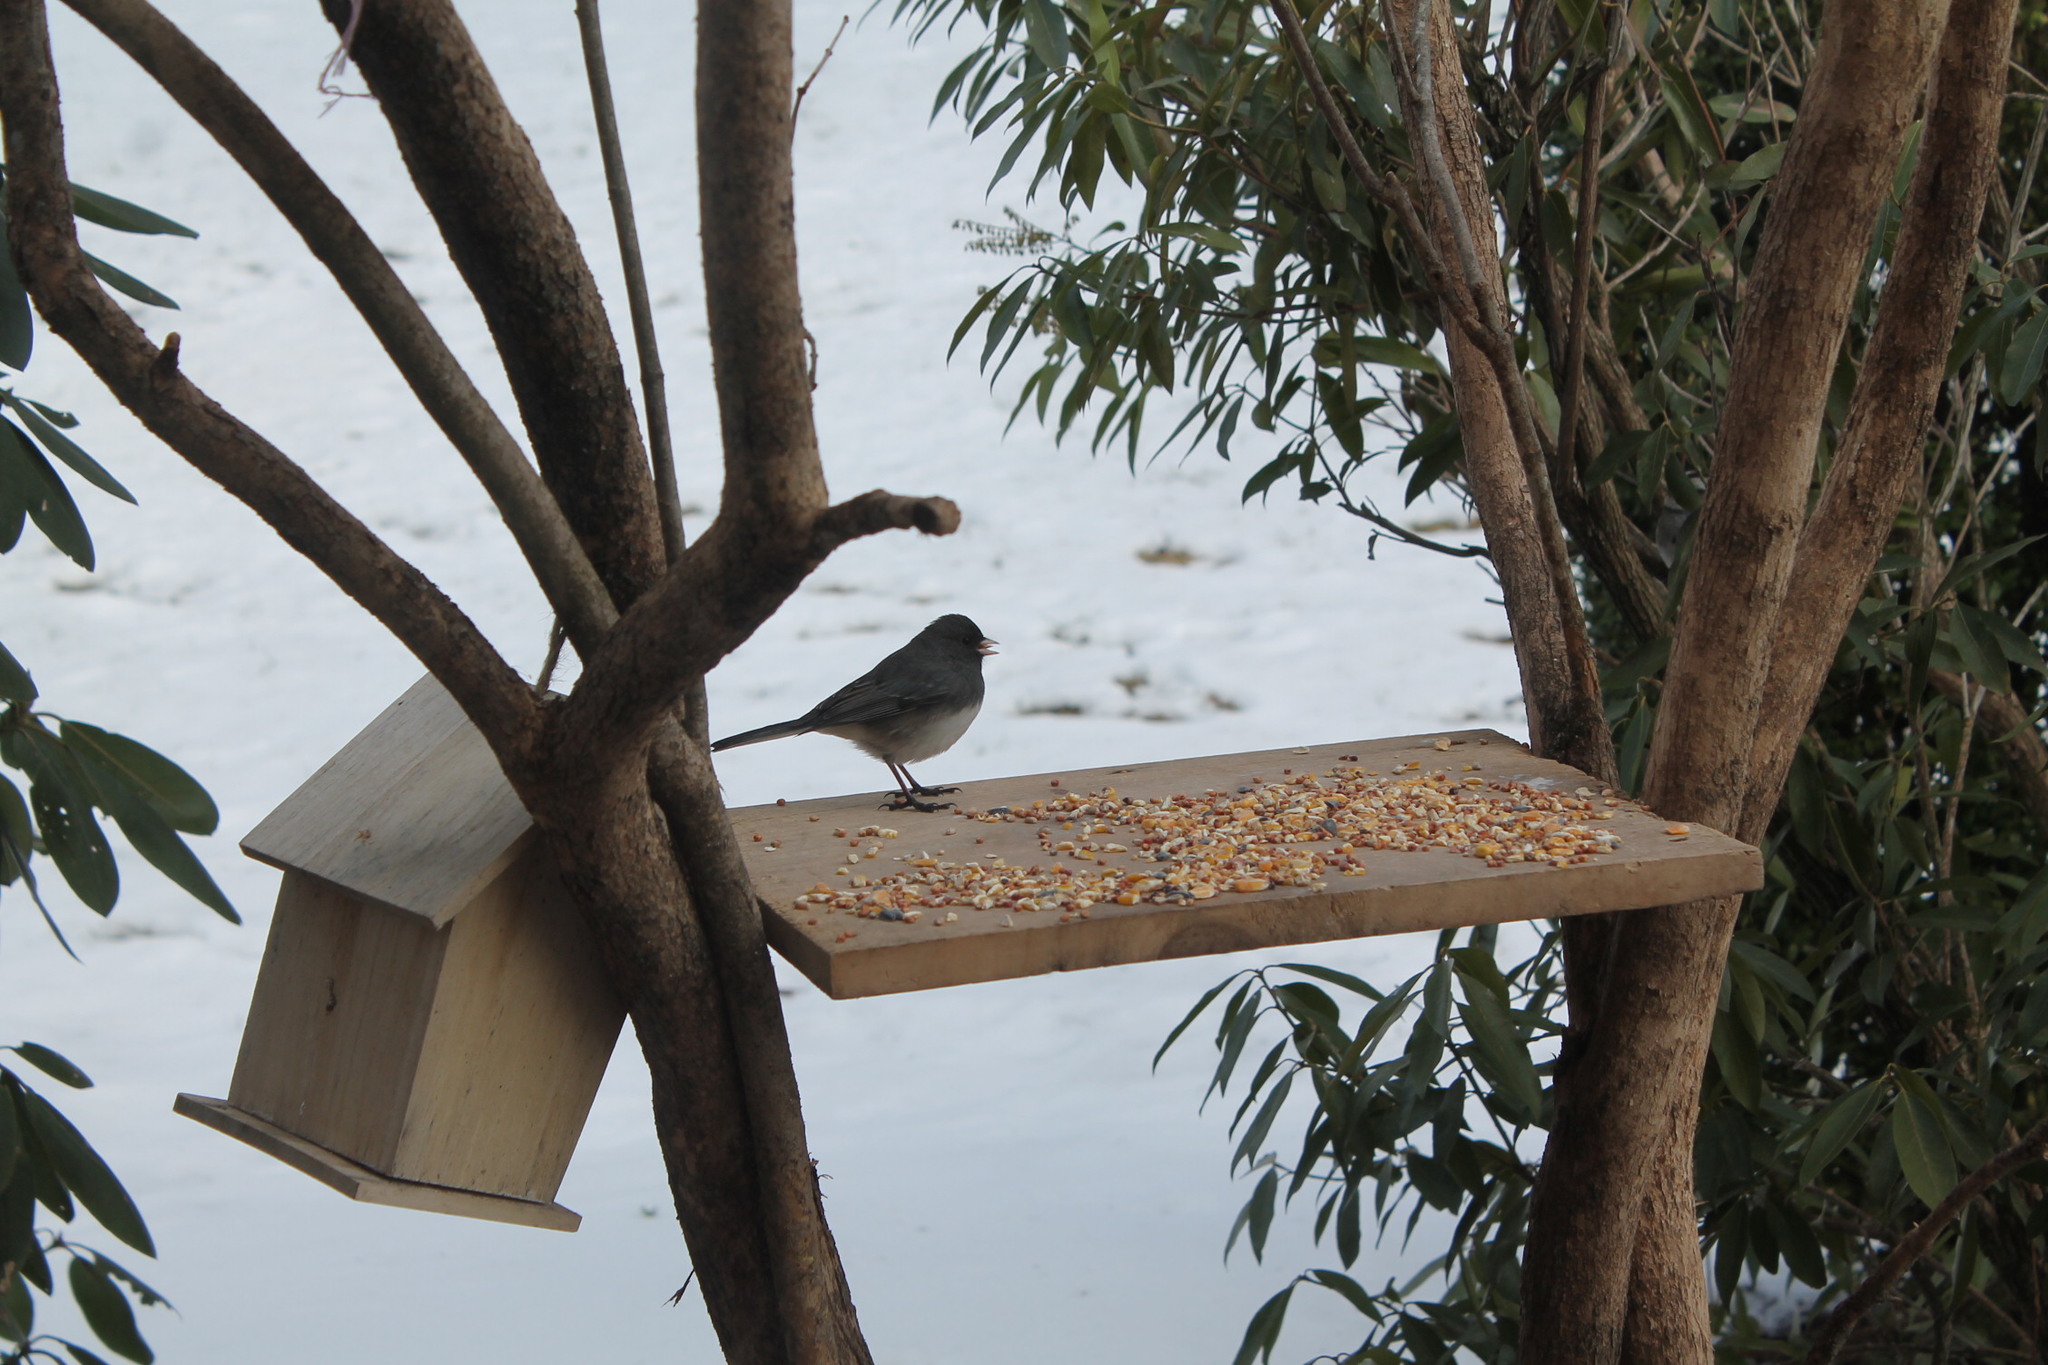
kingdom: Animalia
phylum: Chordata
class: Aves
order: Passeriformes
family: Passerellidae
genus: Junco
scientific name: Junco hyemalis
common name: Dark-eyed junco
